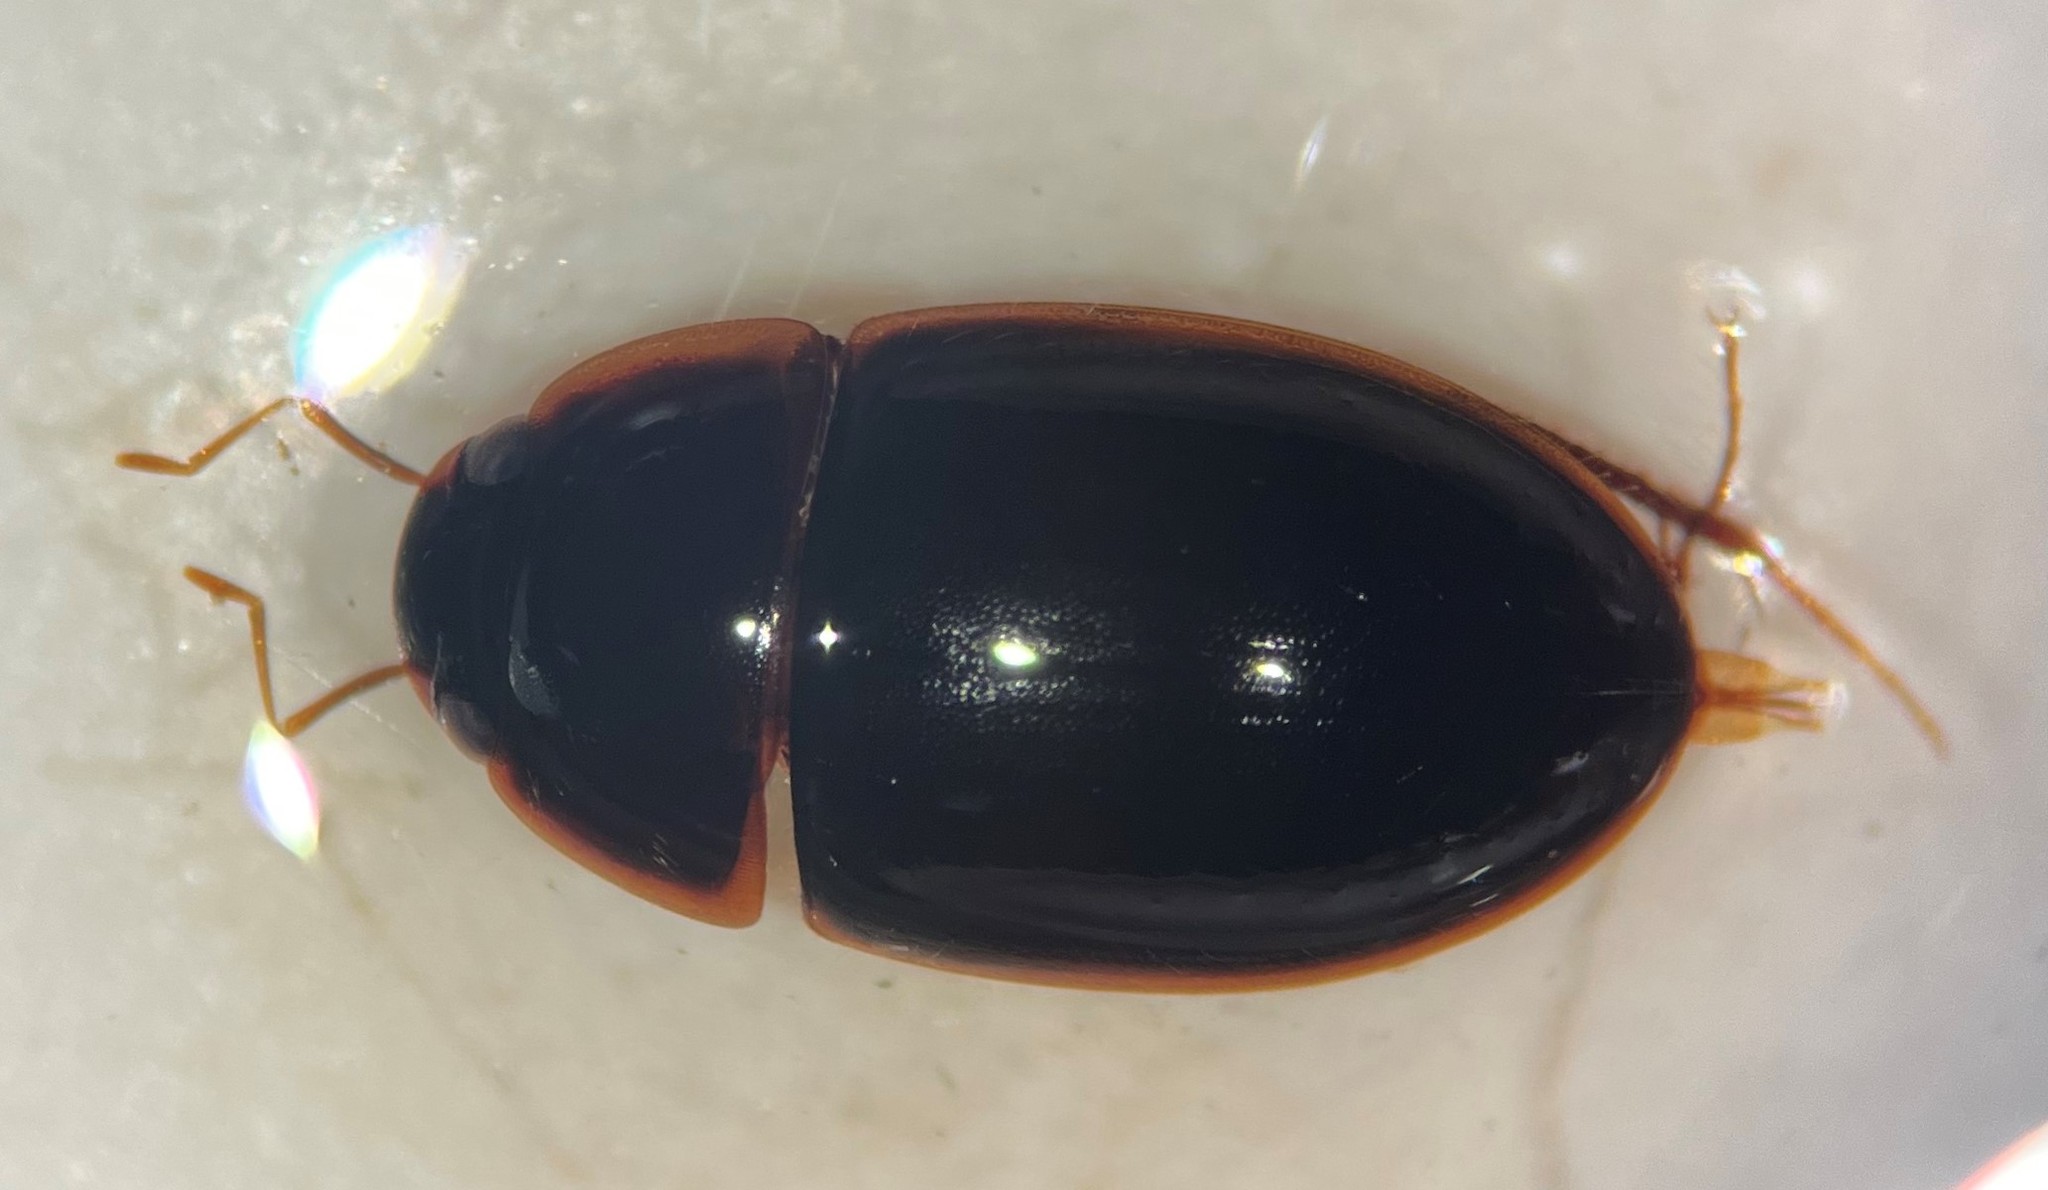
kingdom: Animalia
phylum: Arthropoda
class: Insecta
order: Coleoptera
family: Hydrophilidae
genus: Enochrus
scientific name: Enochrus fimbriatus
